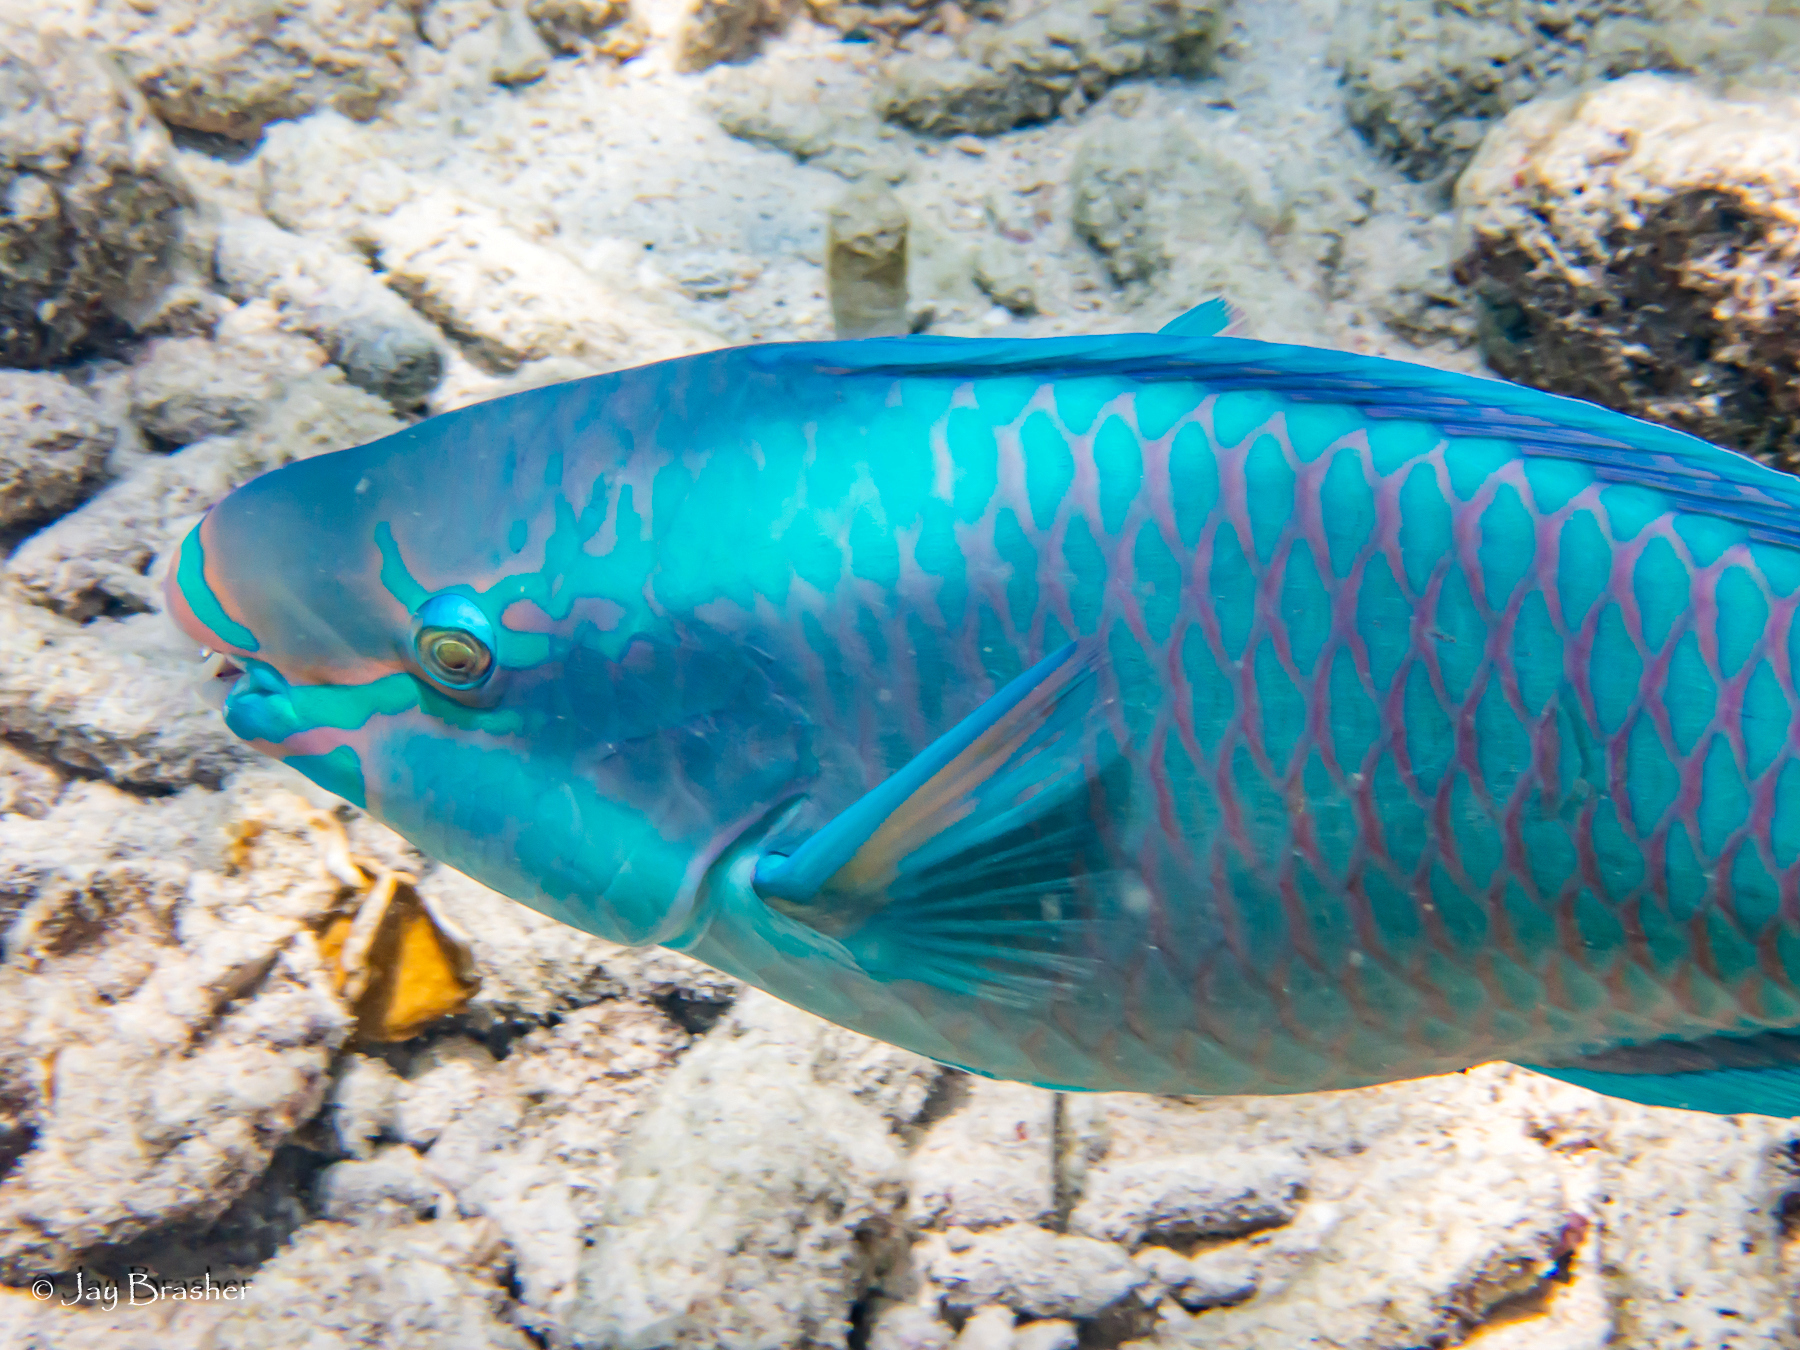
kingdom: Animalia
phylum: Chordata
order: Perciformes
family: Scaridae
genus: Scarus
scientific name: Scarus vetula
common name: Queen parrotfish
